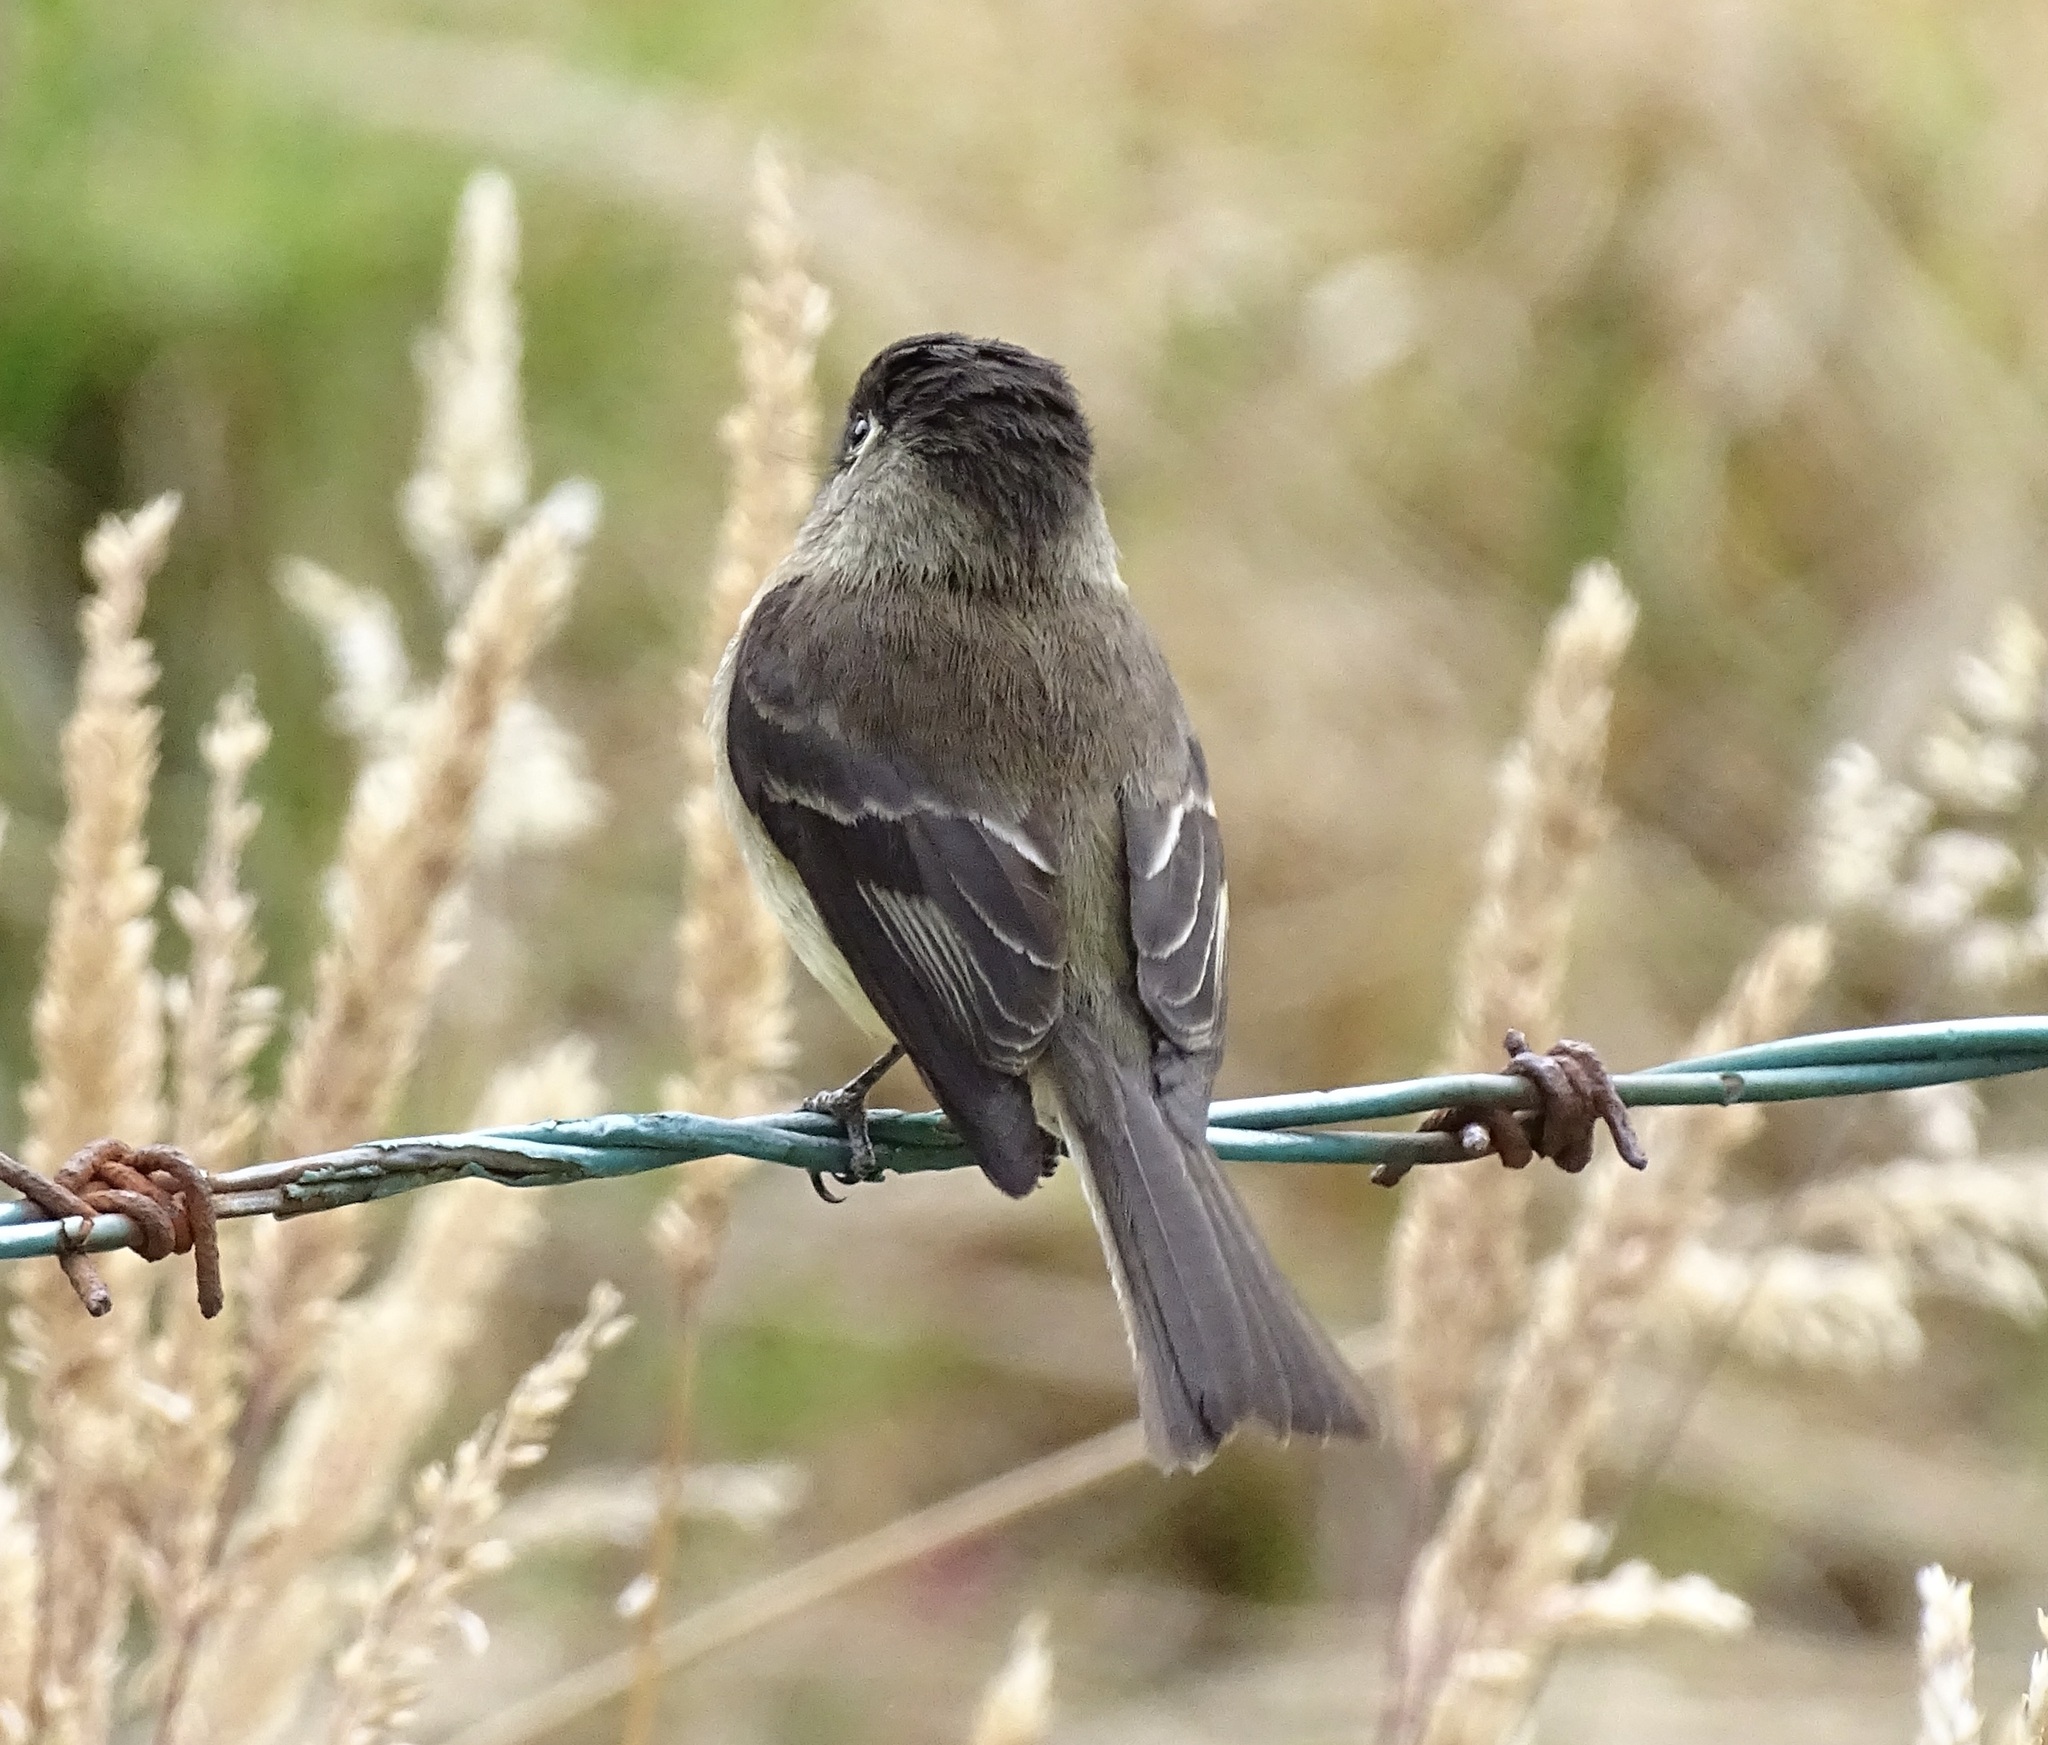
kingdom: Animalia
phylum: Chordata
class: Aves
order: Passeriformes
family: Tyrannidae
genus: Empidonax
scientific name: Empidonax atriceps
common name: Black-capped flycatcher
